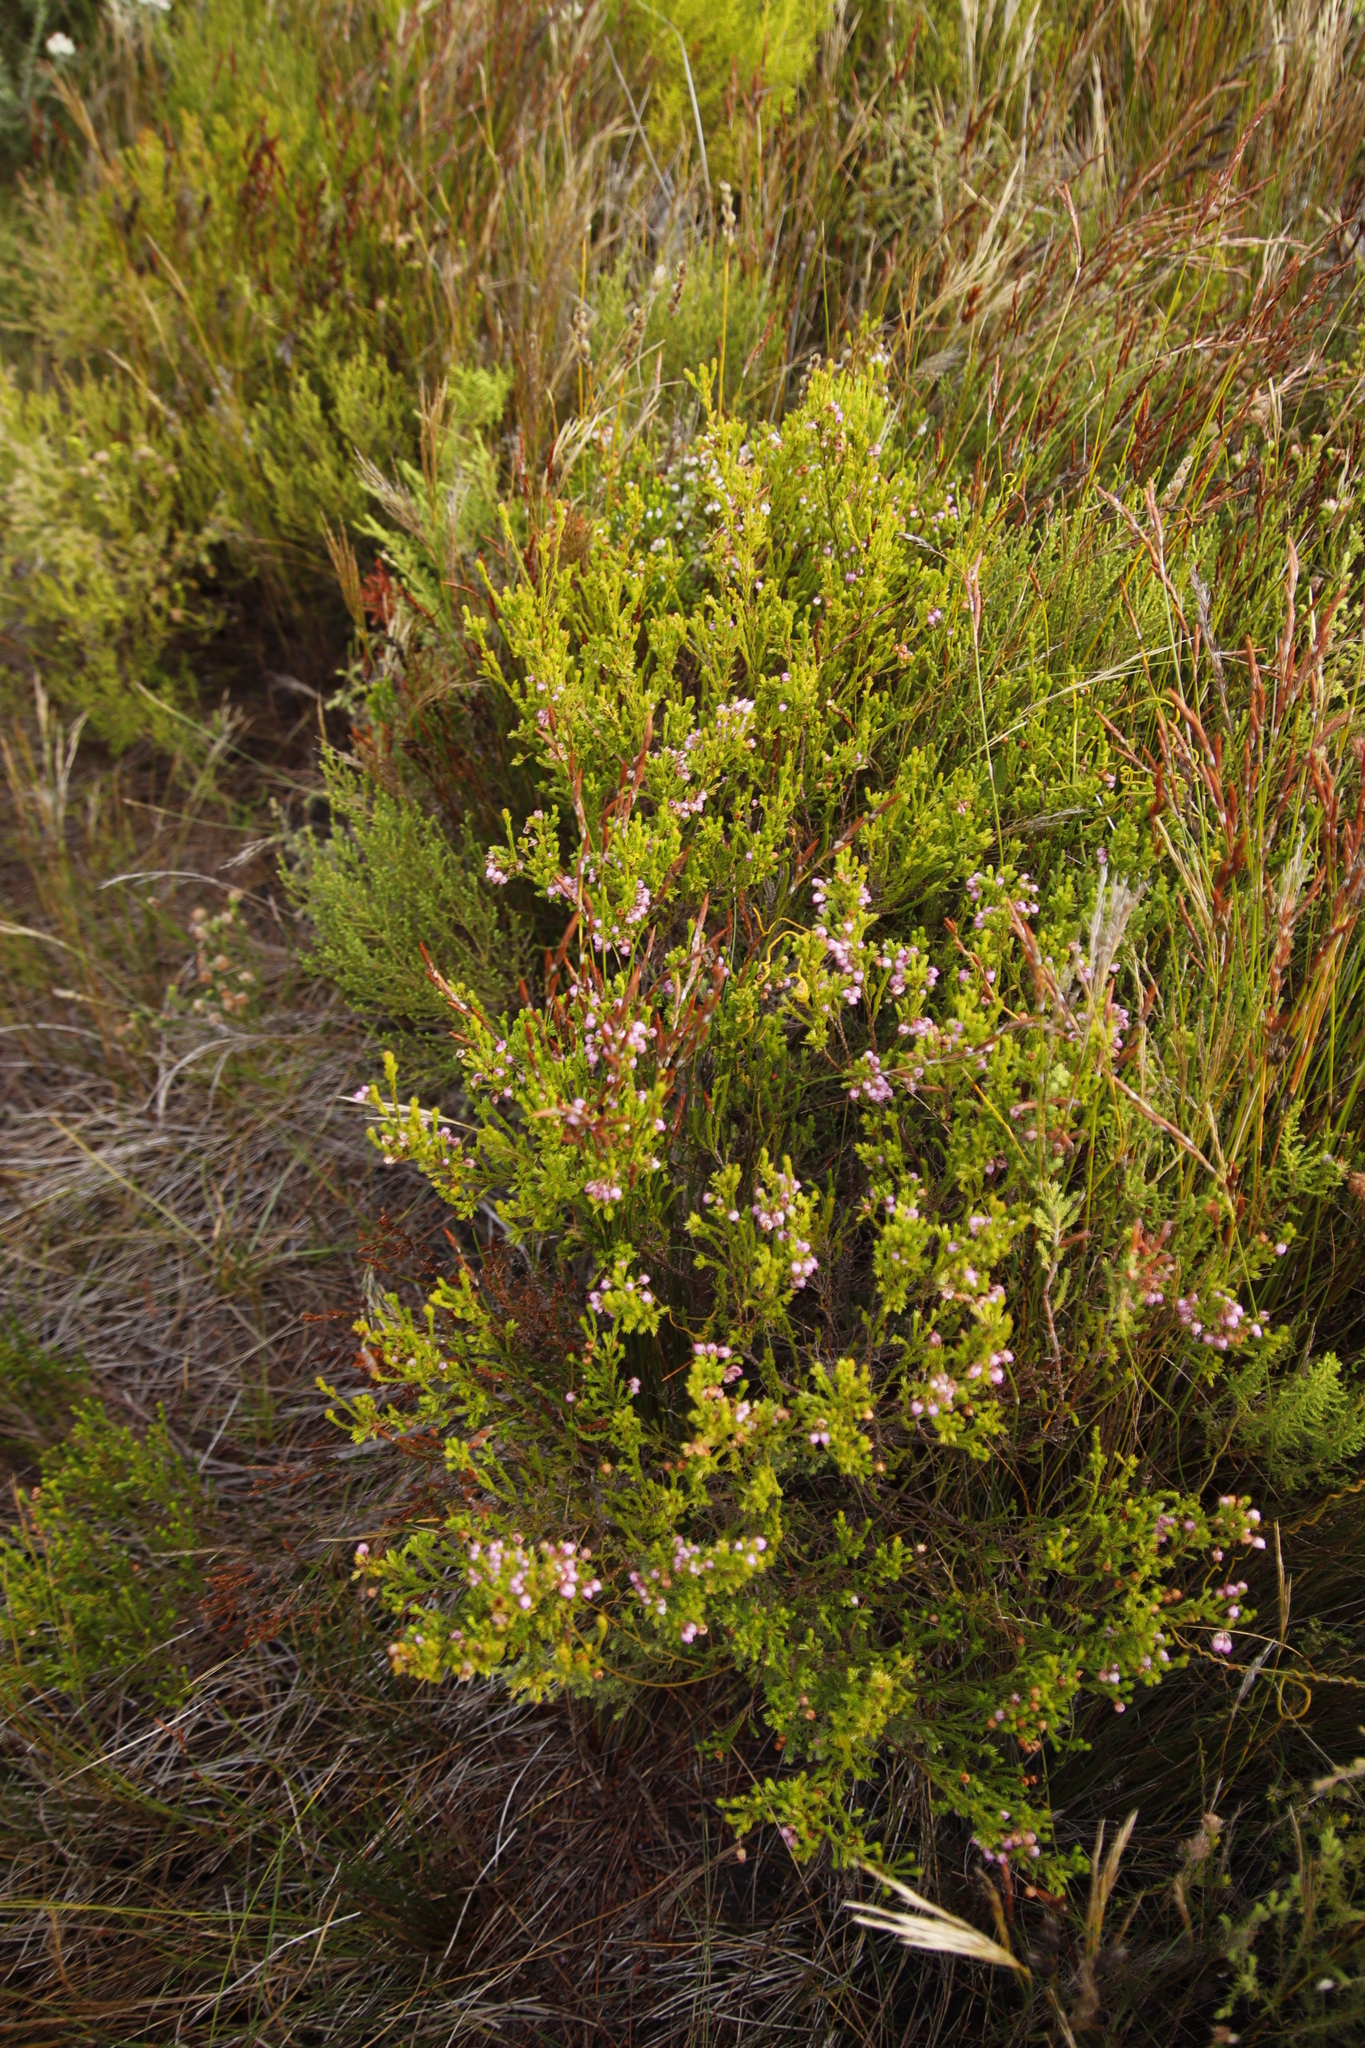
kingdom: Plantae
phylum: Tracheophyta
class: Magnoliopsida
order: Ericales
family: Ericaceae
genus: Erica
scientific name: Erica laeta
